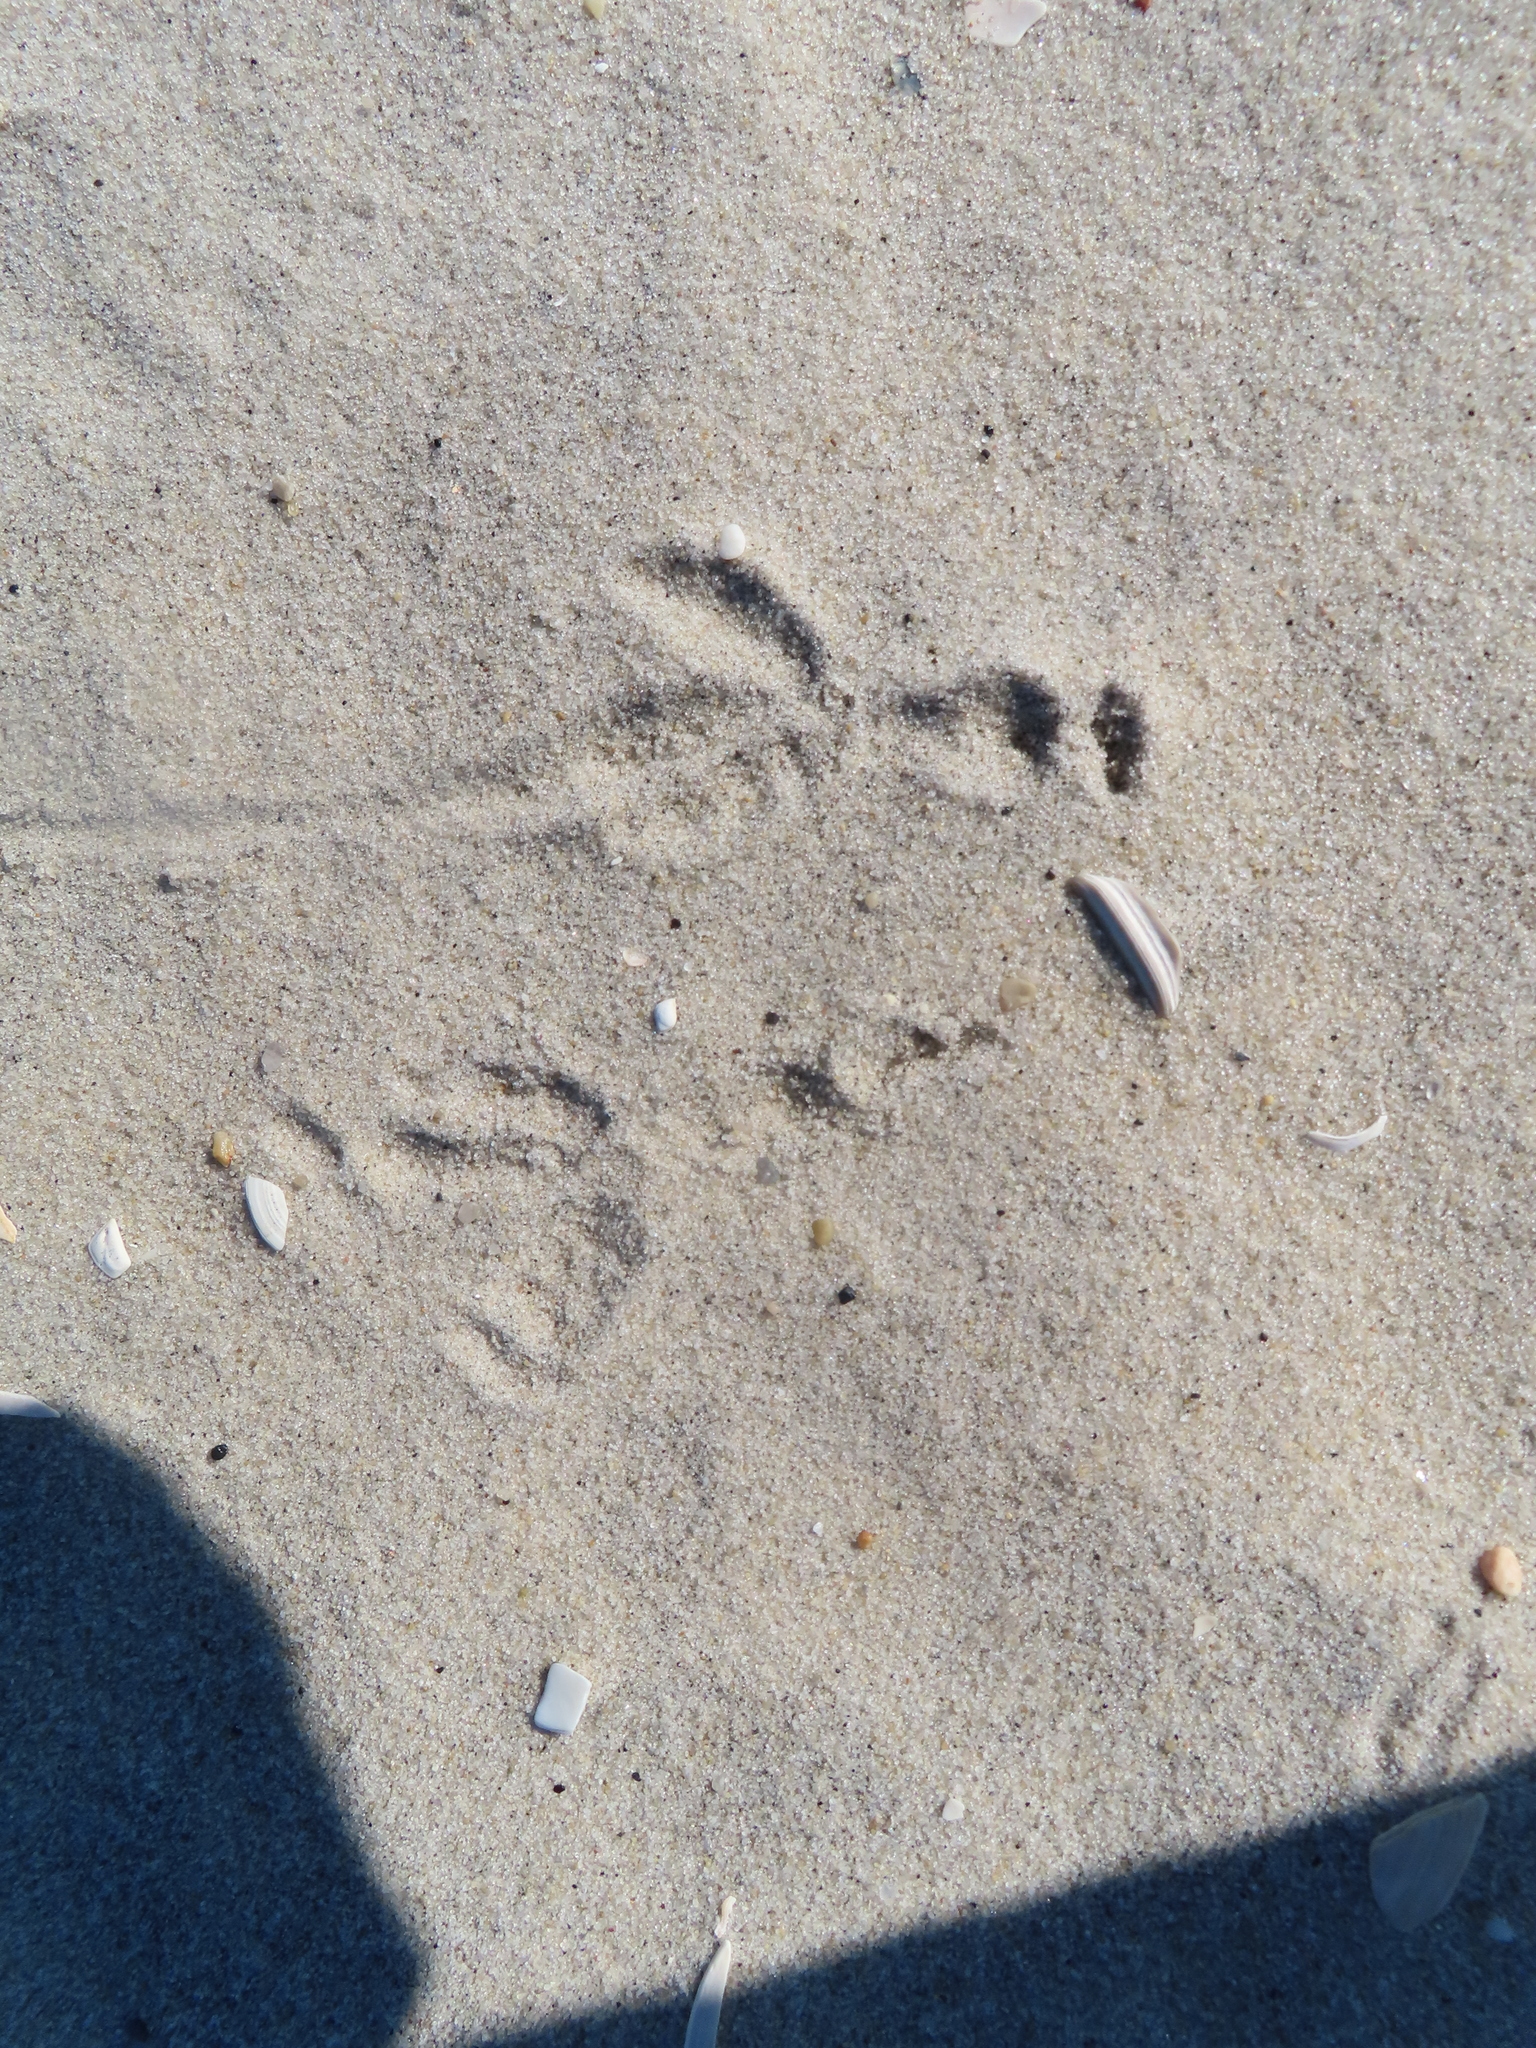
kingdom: Animalia
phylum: Chordata
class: Aves
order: Passeriformes
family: Corvidae
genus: Corvus
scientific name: Corvus brachyrhynchos
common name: American crow
